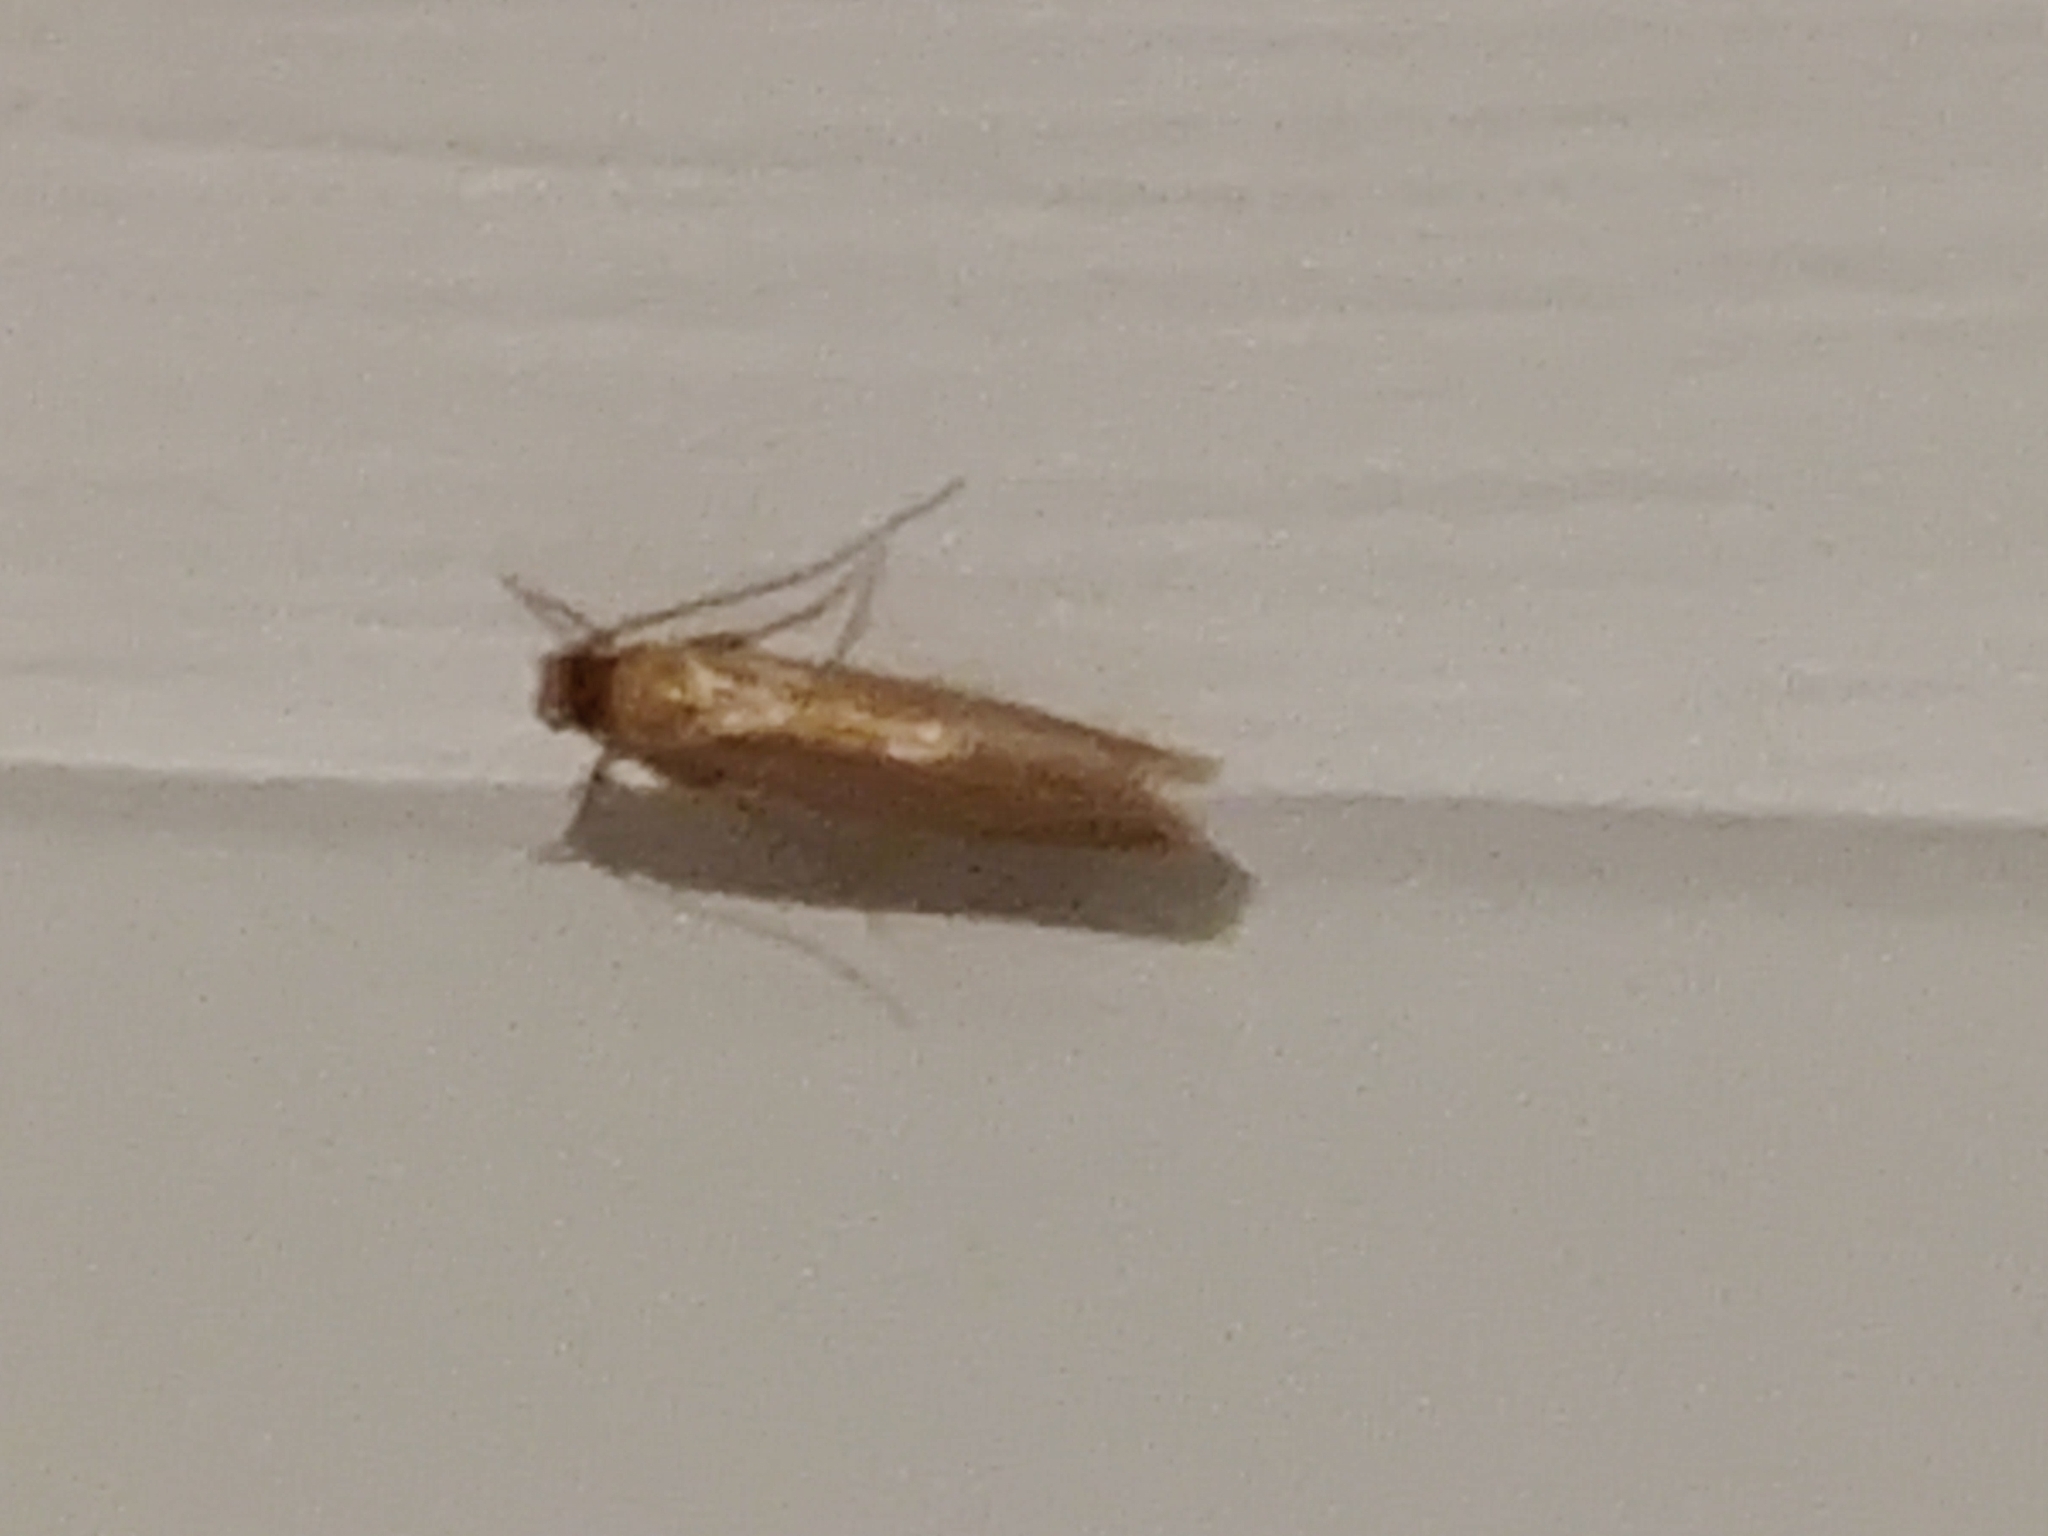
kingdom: Animalia
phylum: Arthropoda
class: Insecta
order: Lepidoptera
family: Tineidae
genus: Tineola
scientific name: Tineola bisselliella
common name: Webbing clothes moth
